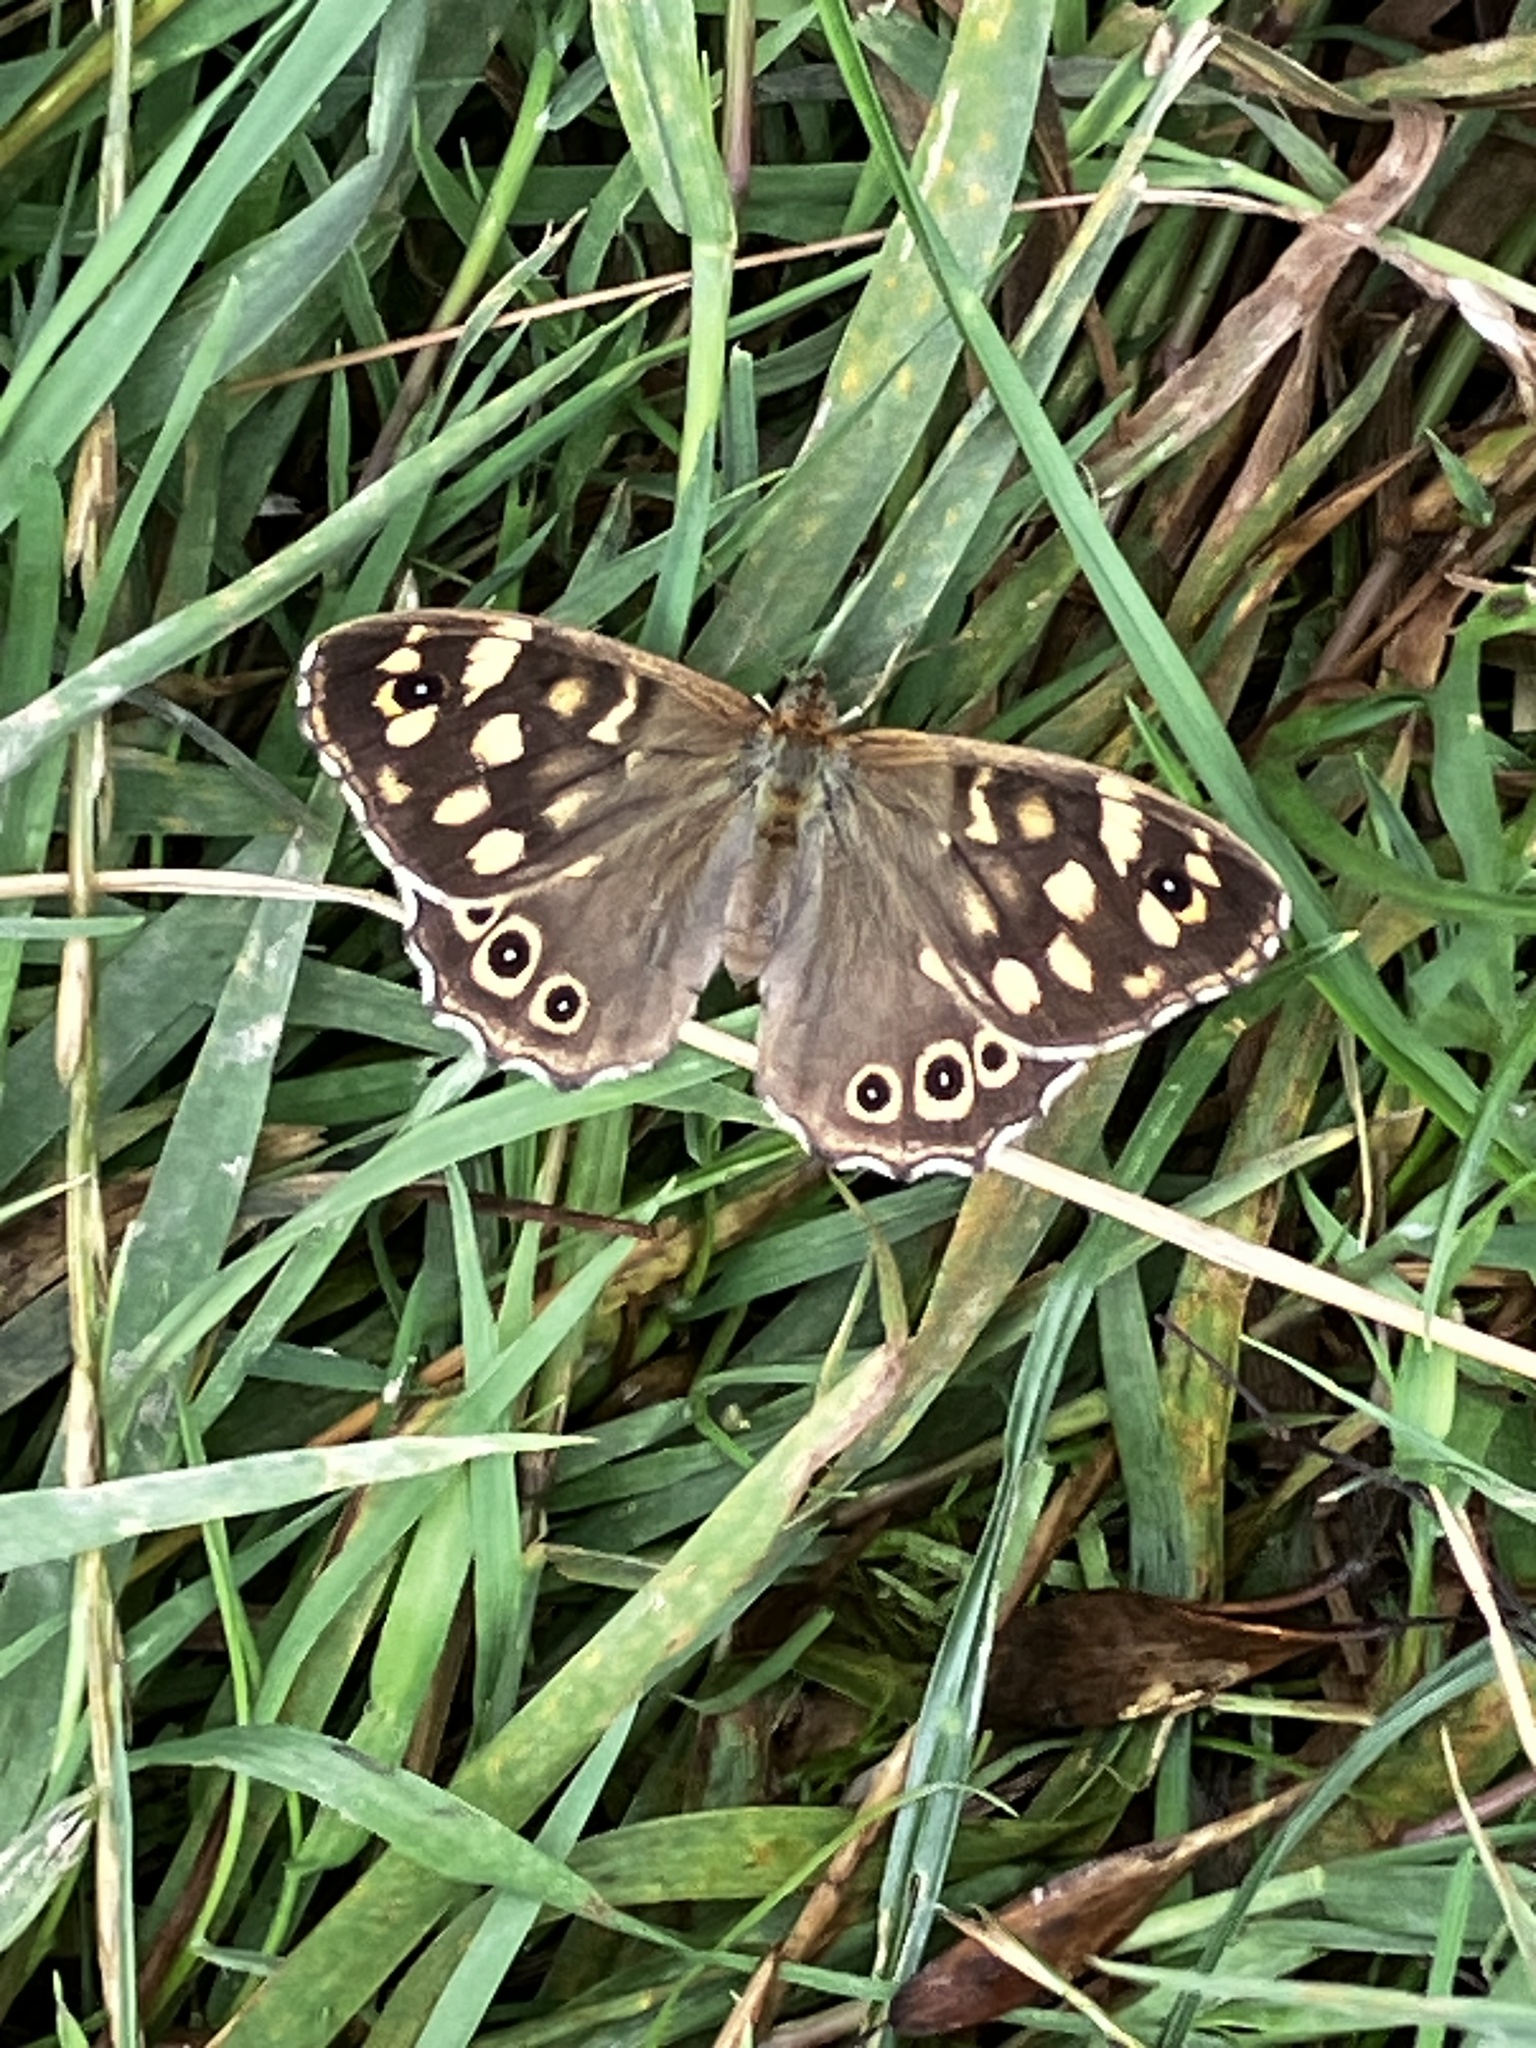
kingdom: Animalia
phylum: Arthropoda
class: Insecta
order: Lepidoptera
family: Nymphalidae
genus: Pararge
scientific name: Pararge aegeria
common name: Speckled wood
